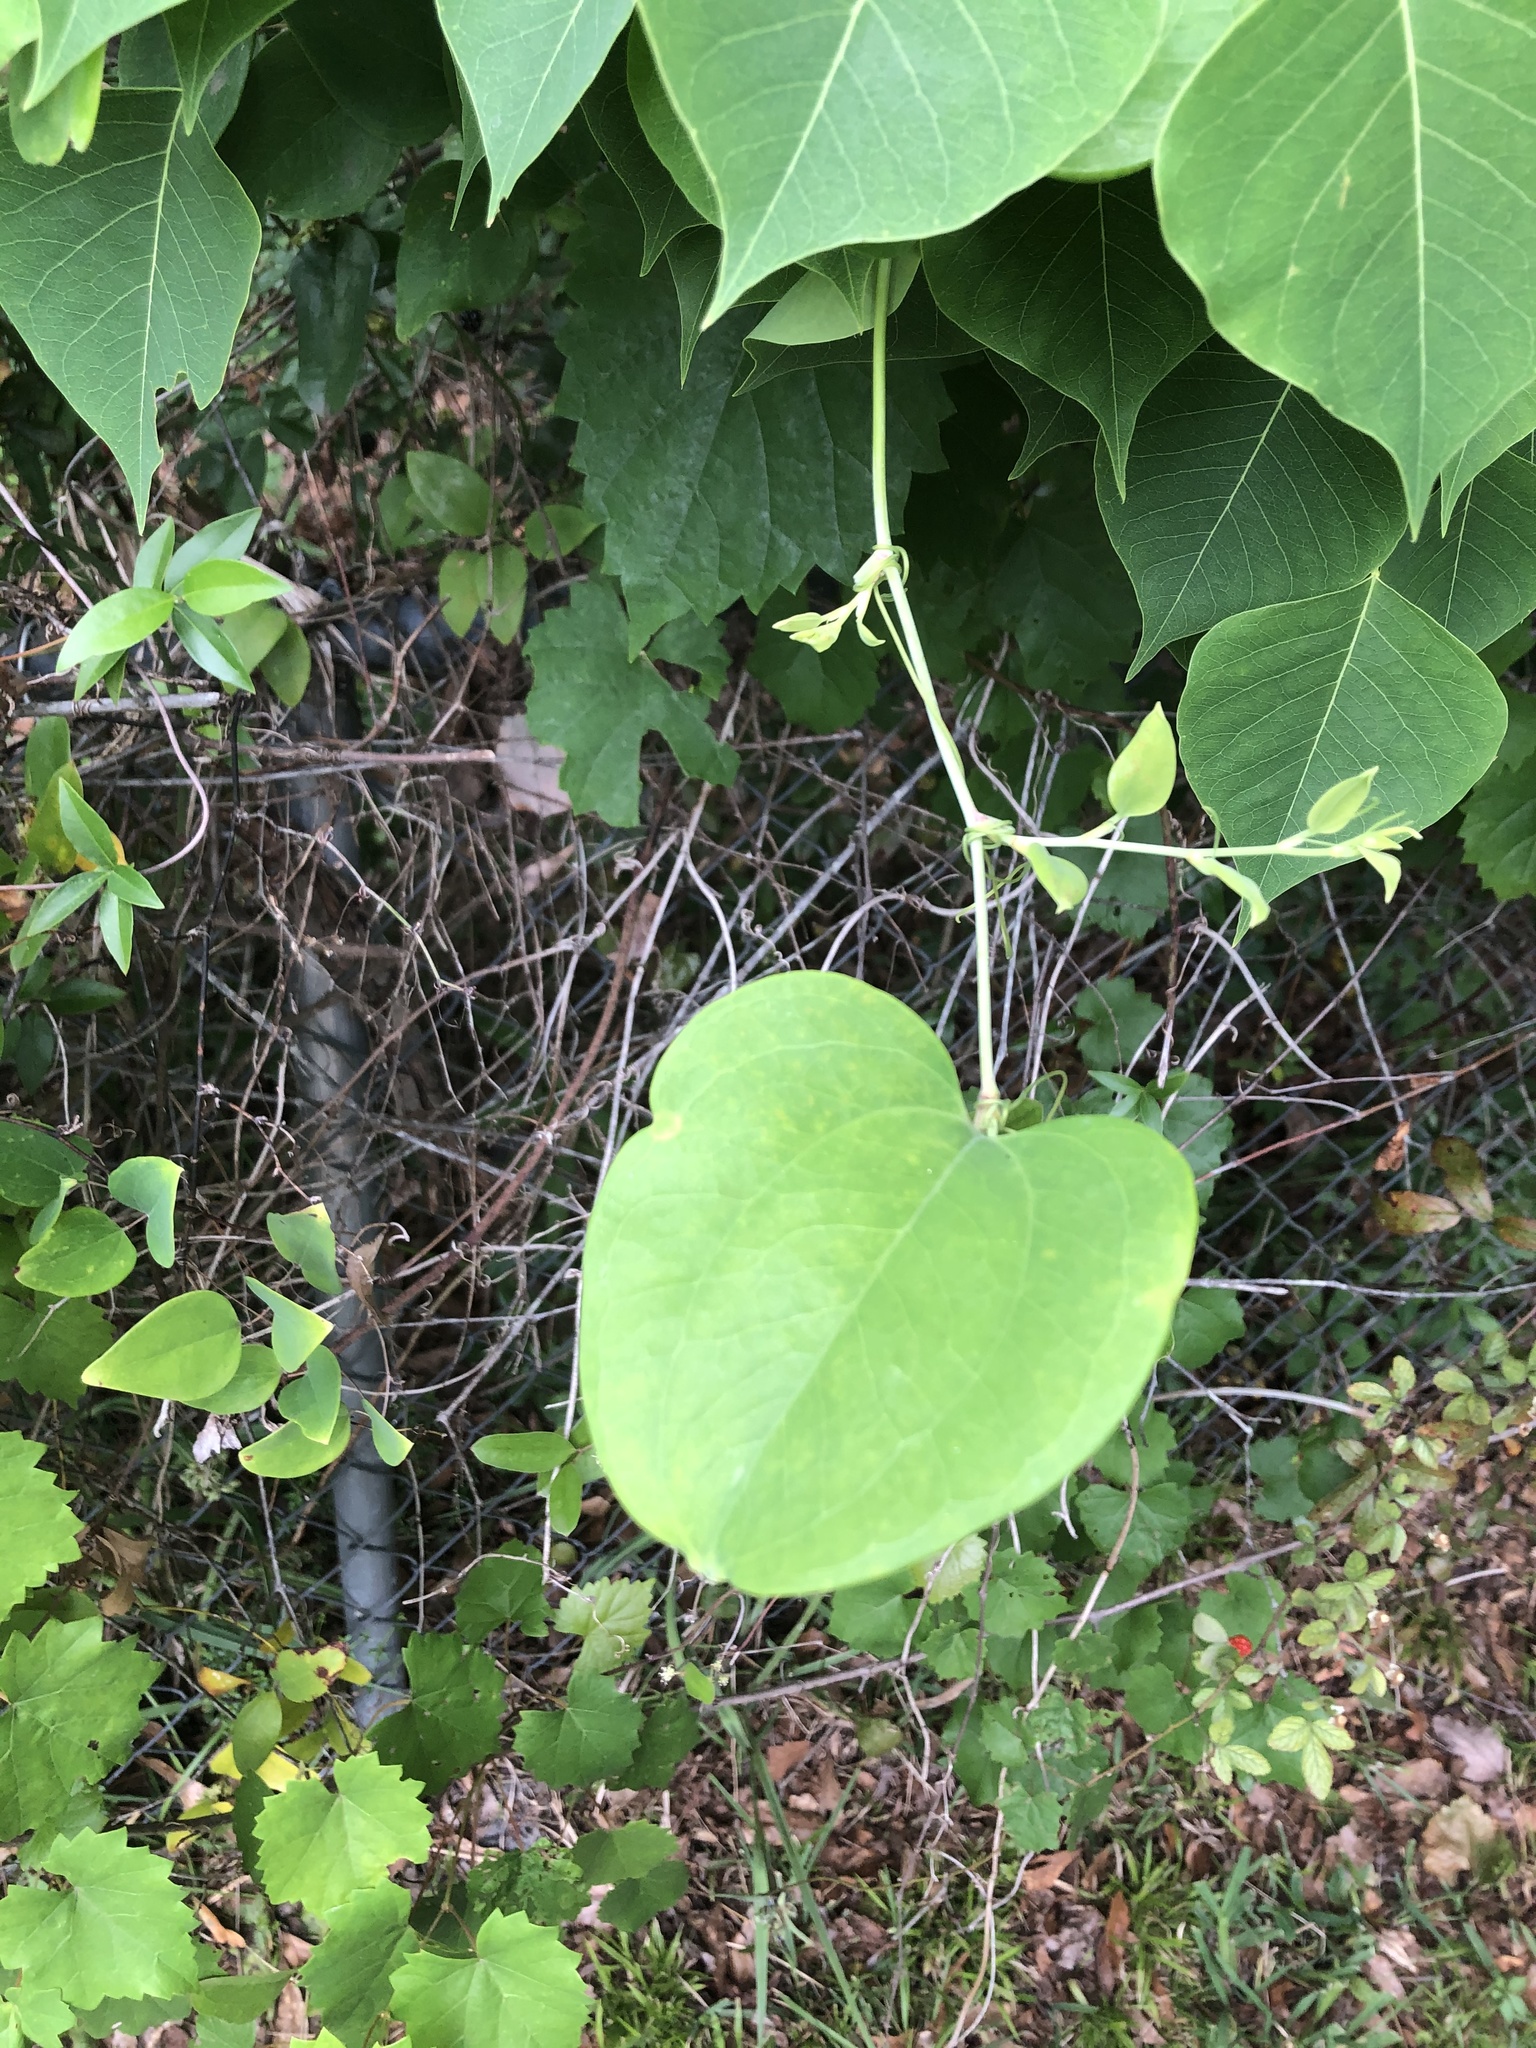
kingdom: Plantae
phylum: Tracheophyta
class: Liliopsida
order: Liliales
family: Smilacaceae
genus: Smilax
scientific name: Smilax glauca
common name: Cat greenbrier
